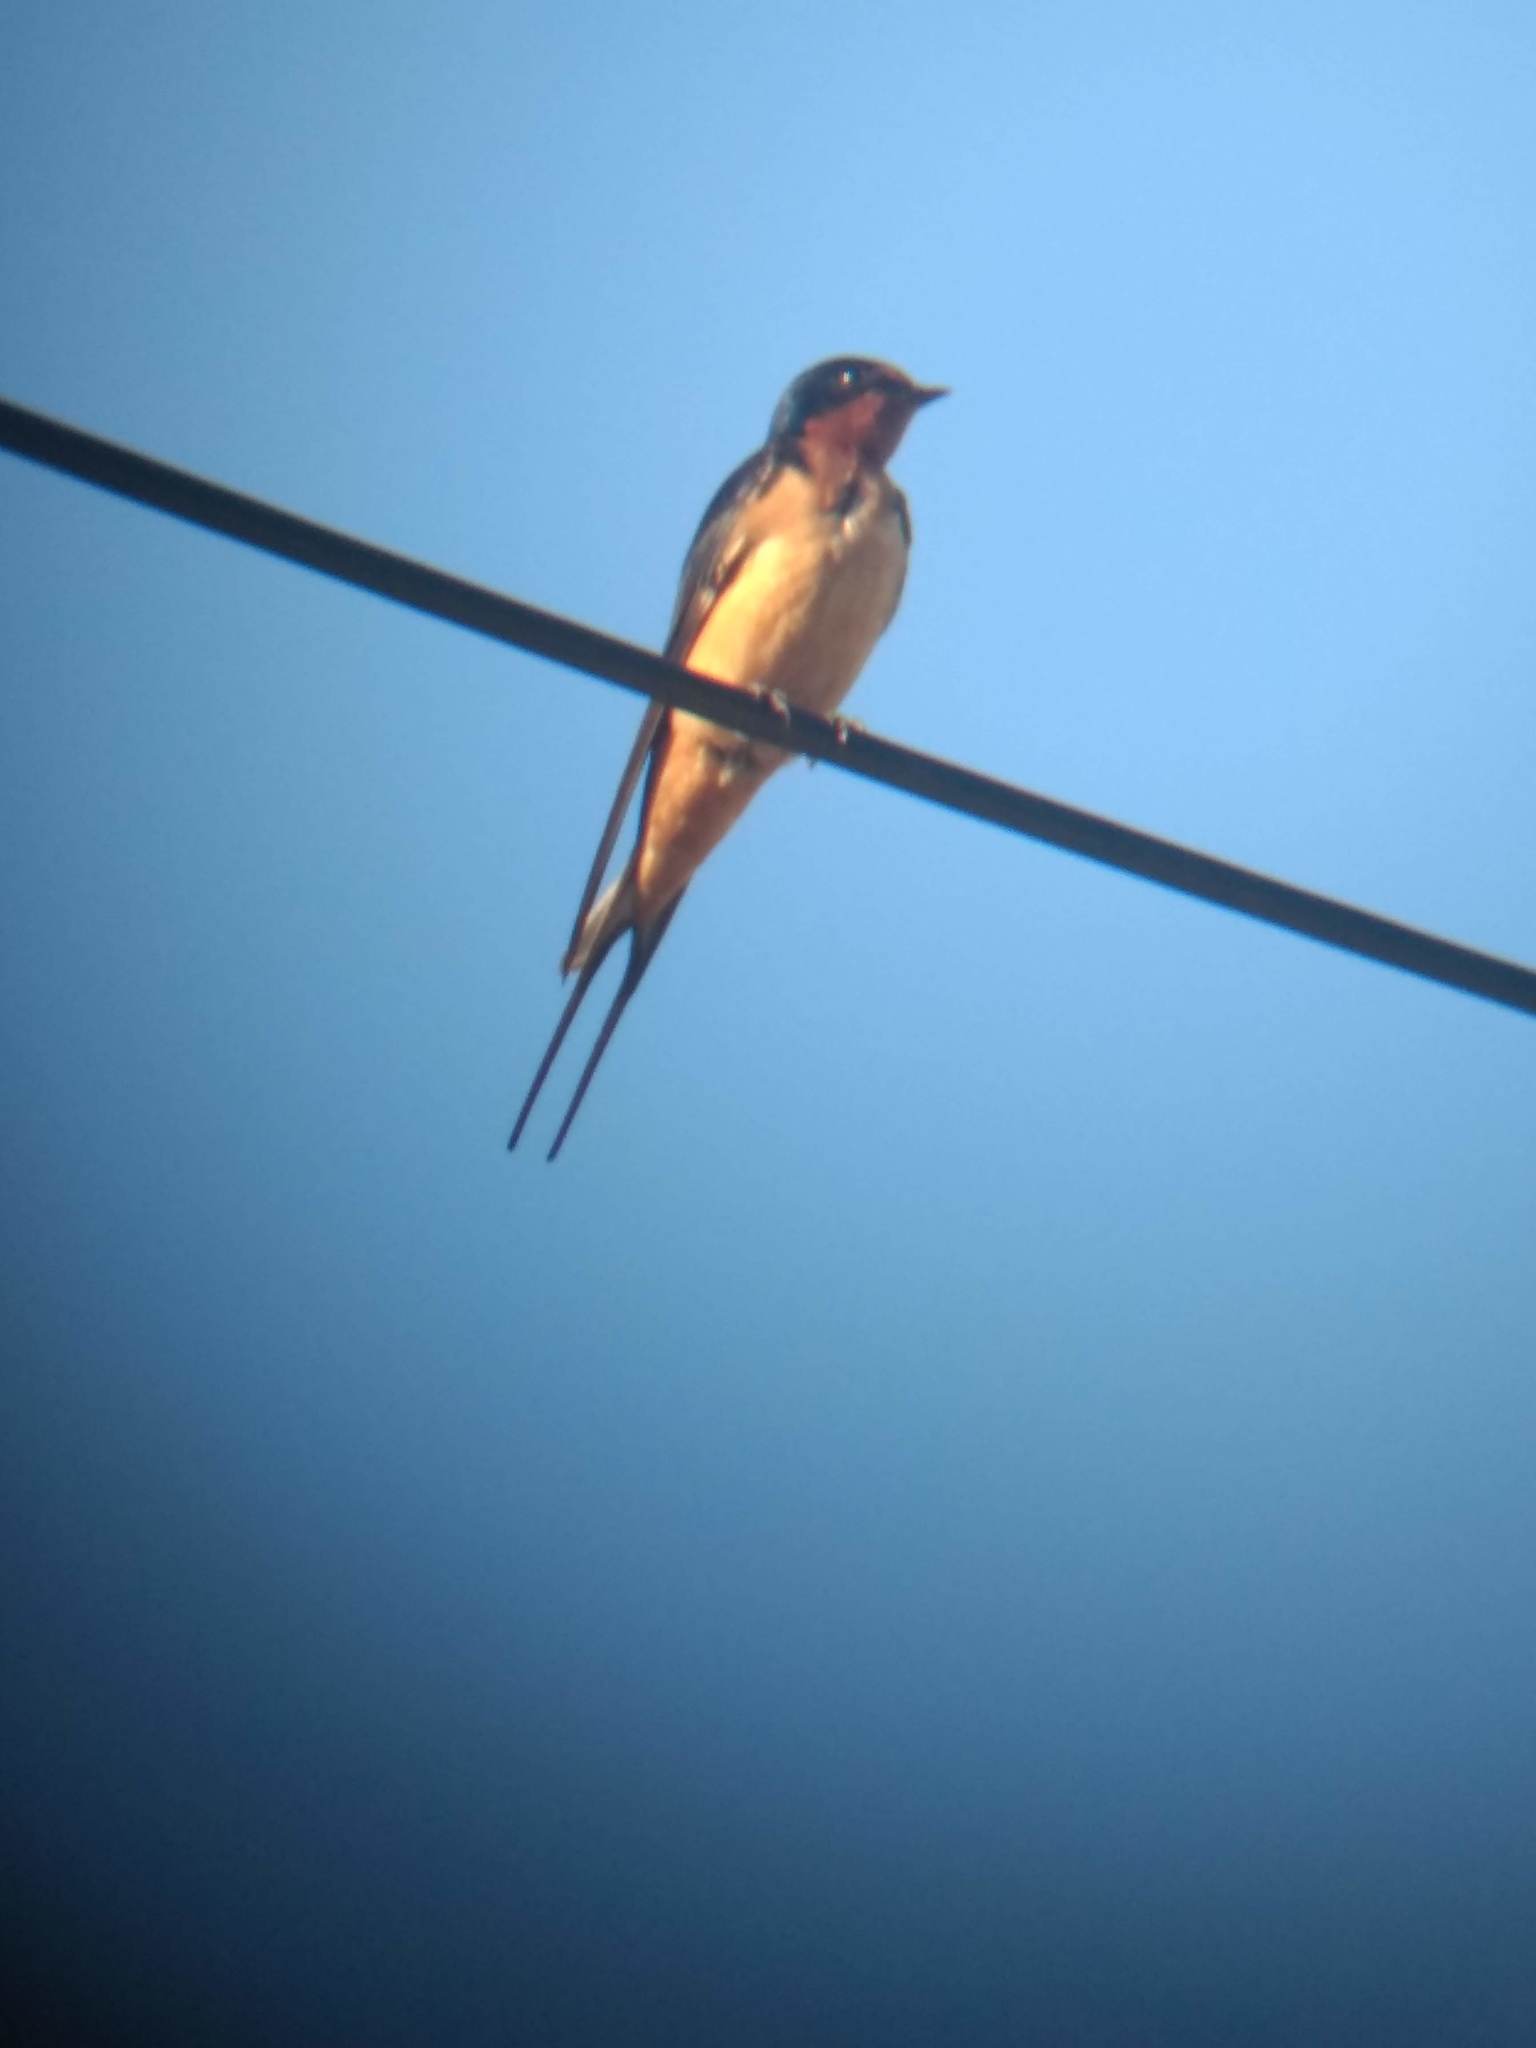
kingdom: Animalia
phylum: Chordata
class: Aves
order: Passeriformes
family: Hirundinidae
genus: Hirundo
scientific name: Hirundo rustica
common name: Barn swallow
